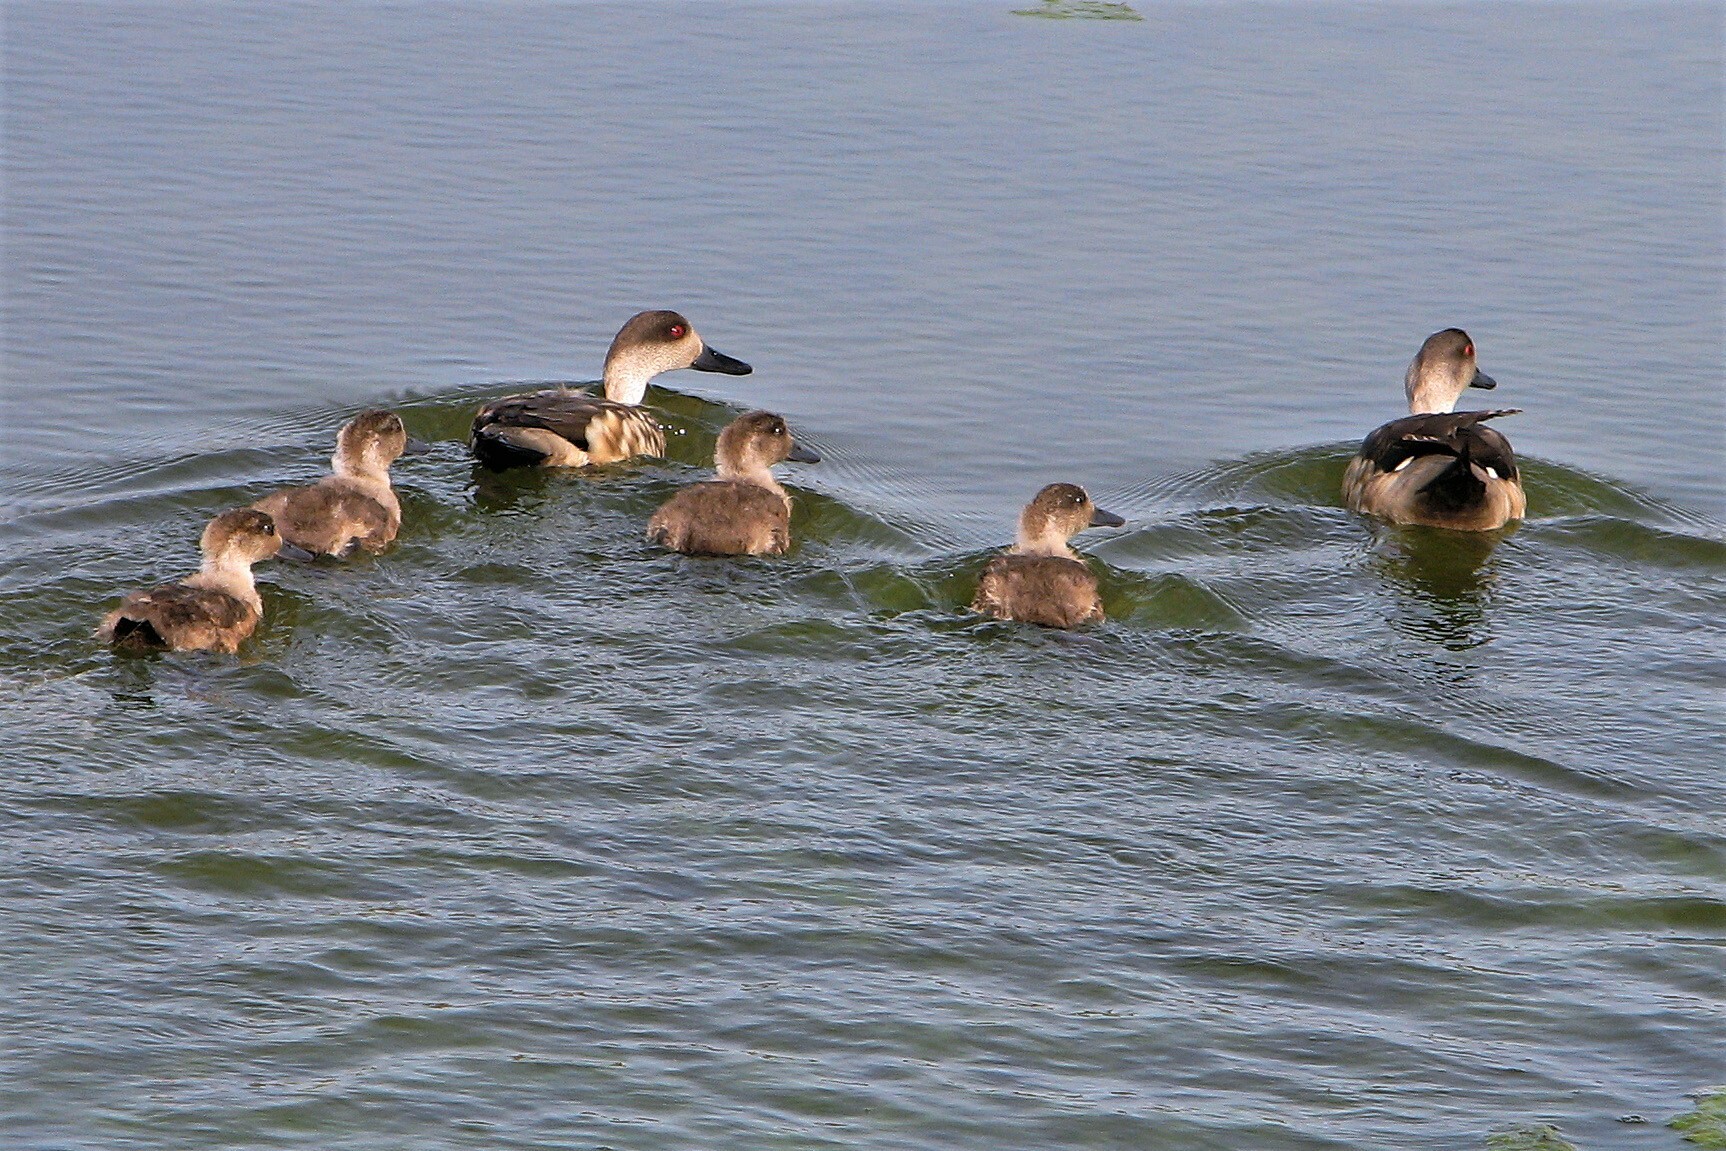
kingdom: Animalia
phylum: Chordata
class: Aves
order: Anseriformes
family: Anatidae
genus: Lophonetta
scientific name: Lophonetta specularioides
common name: Crested duck
